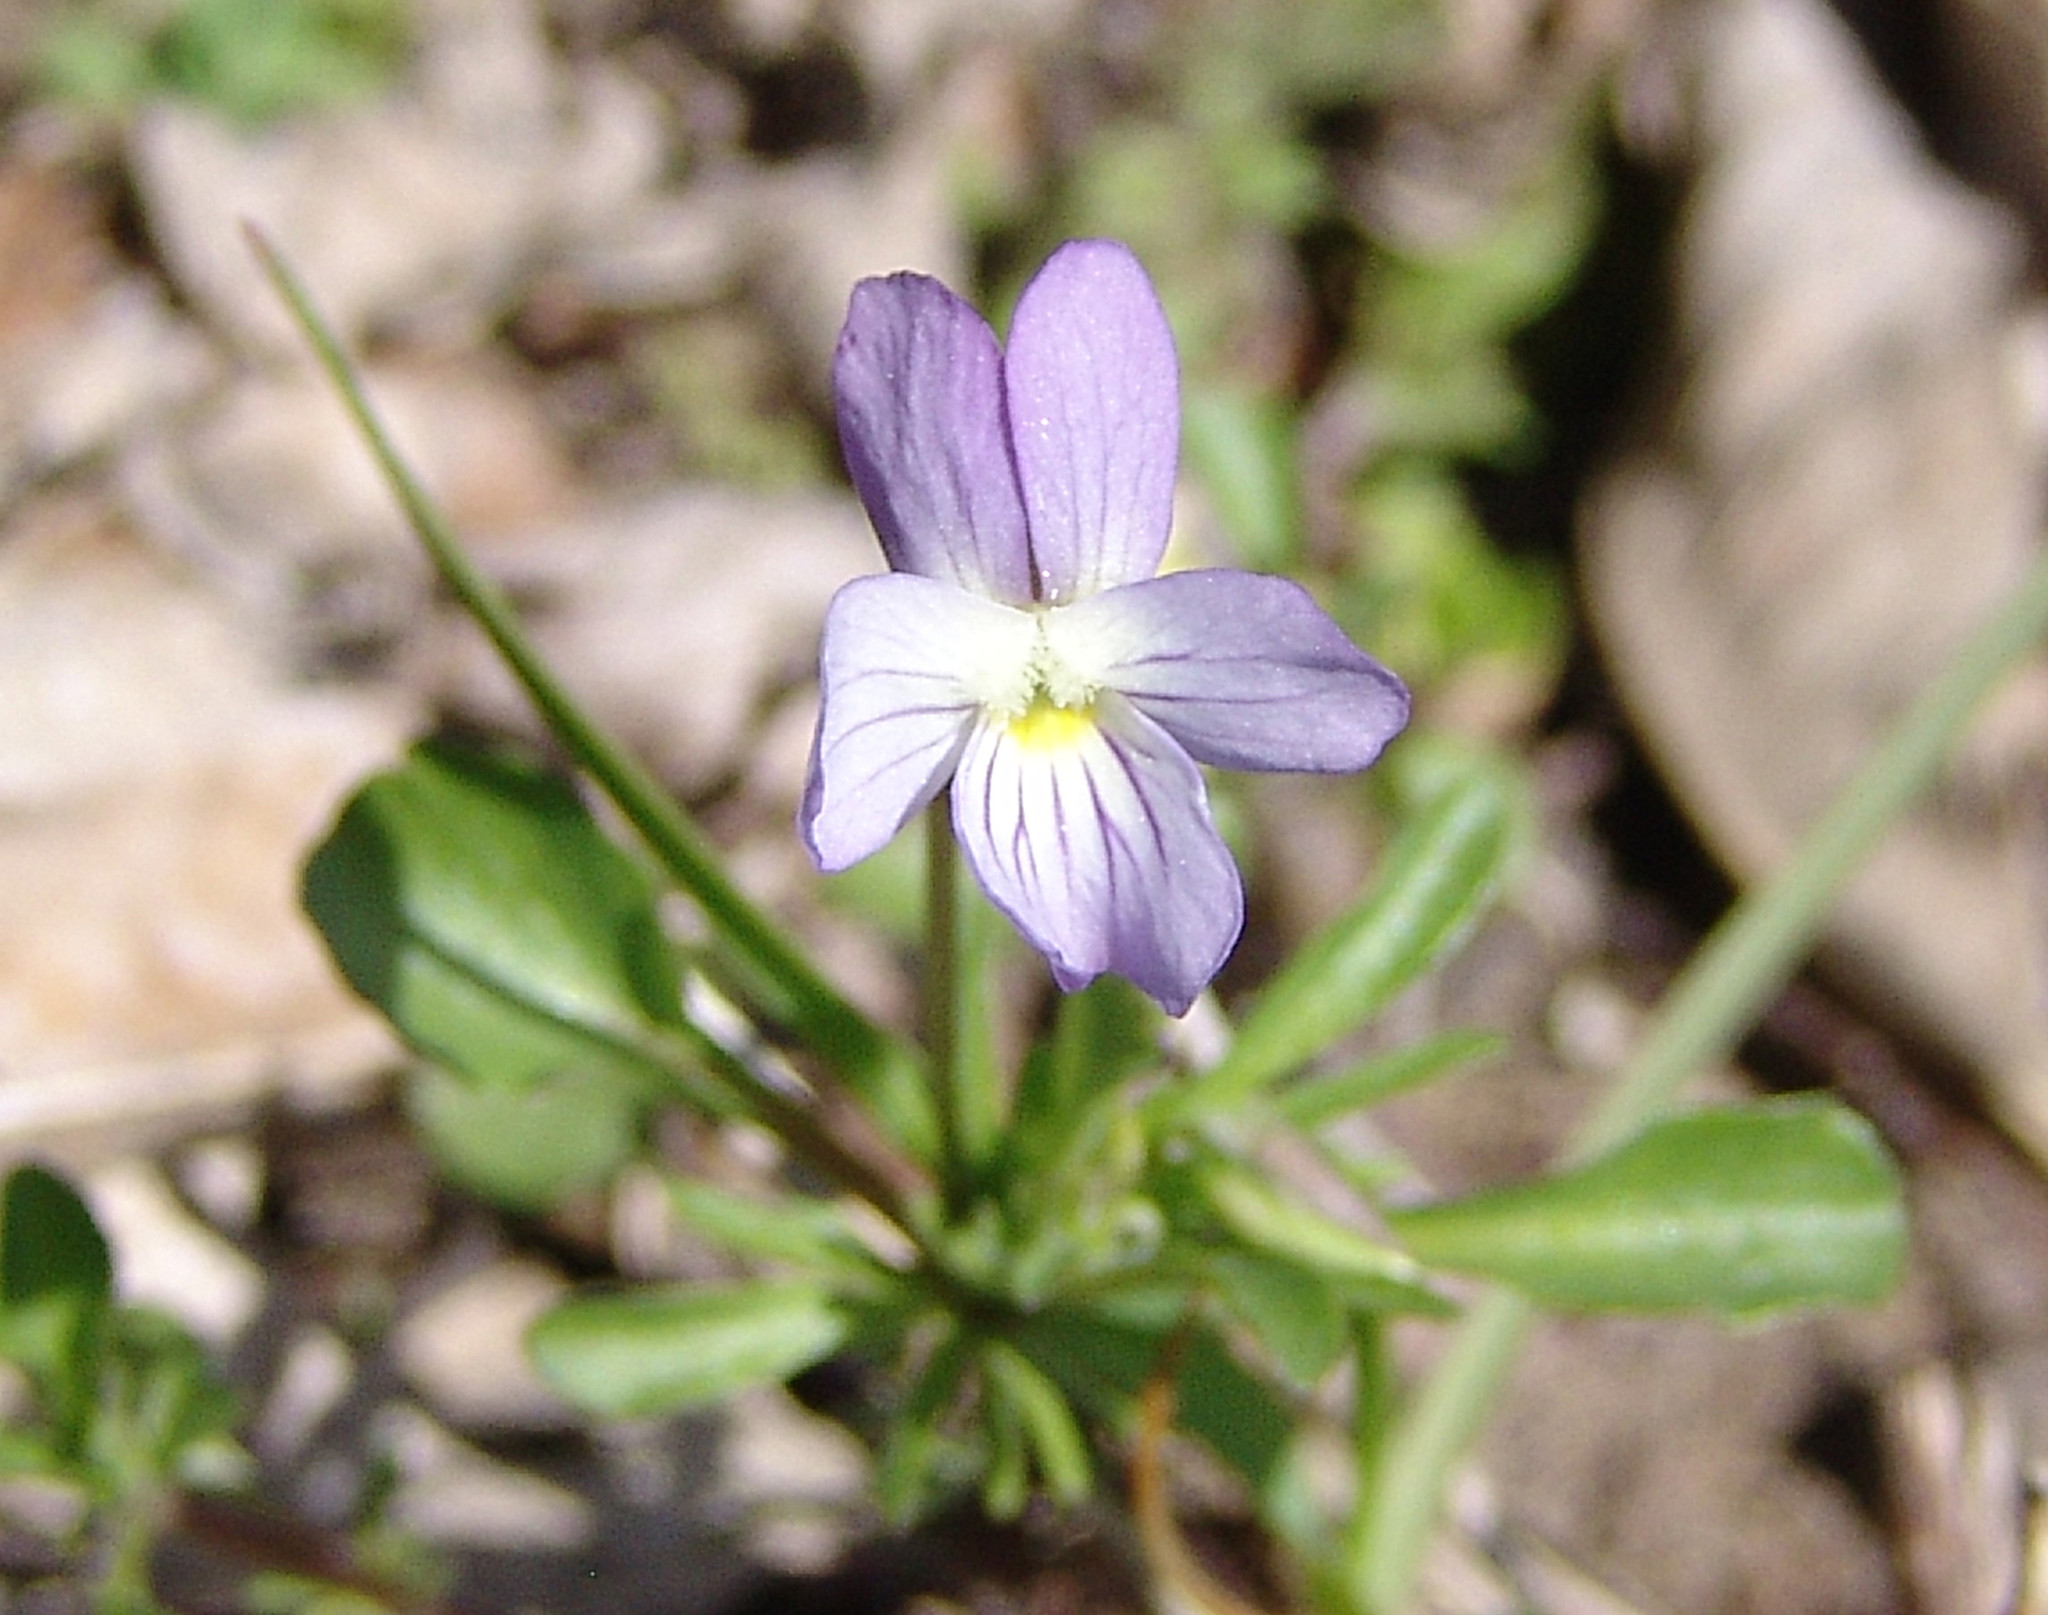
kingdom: Plantae
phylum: Tracheophyta
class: Magnoliopsida
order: Malpighiales
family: Violaceae
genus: Viola
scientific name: Viola rafinesquei
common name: American field pansy
